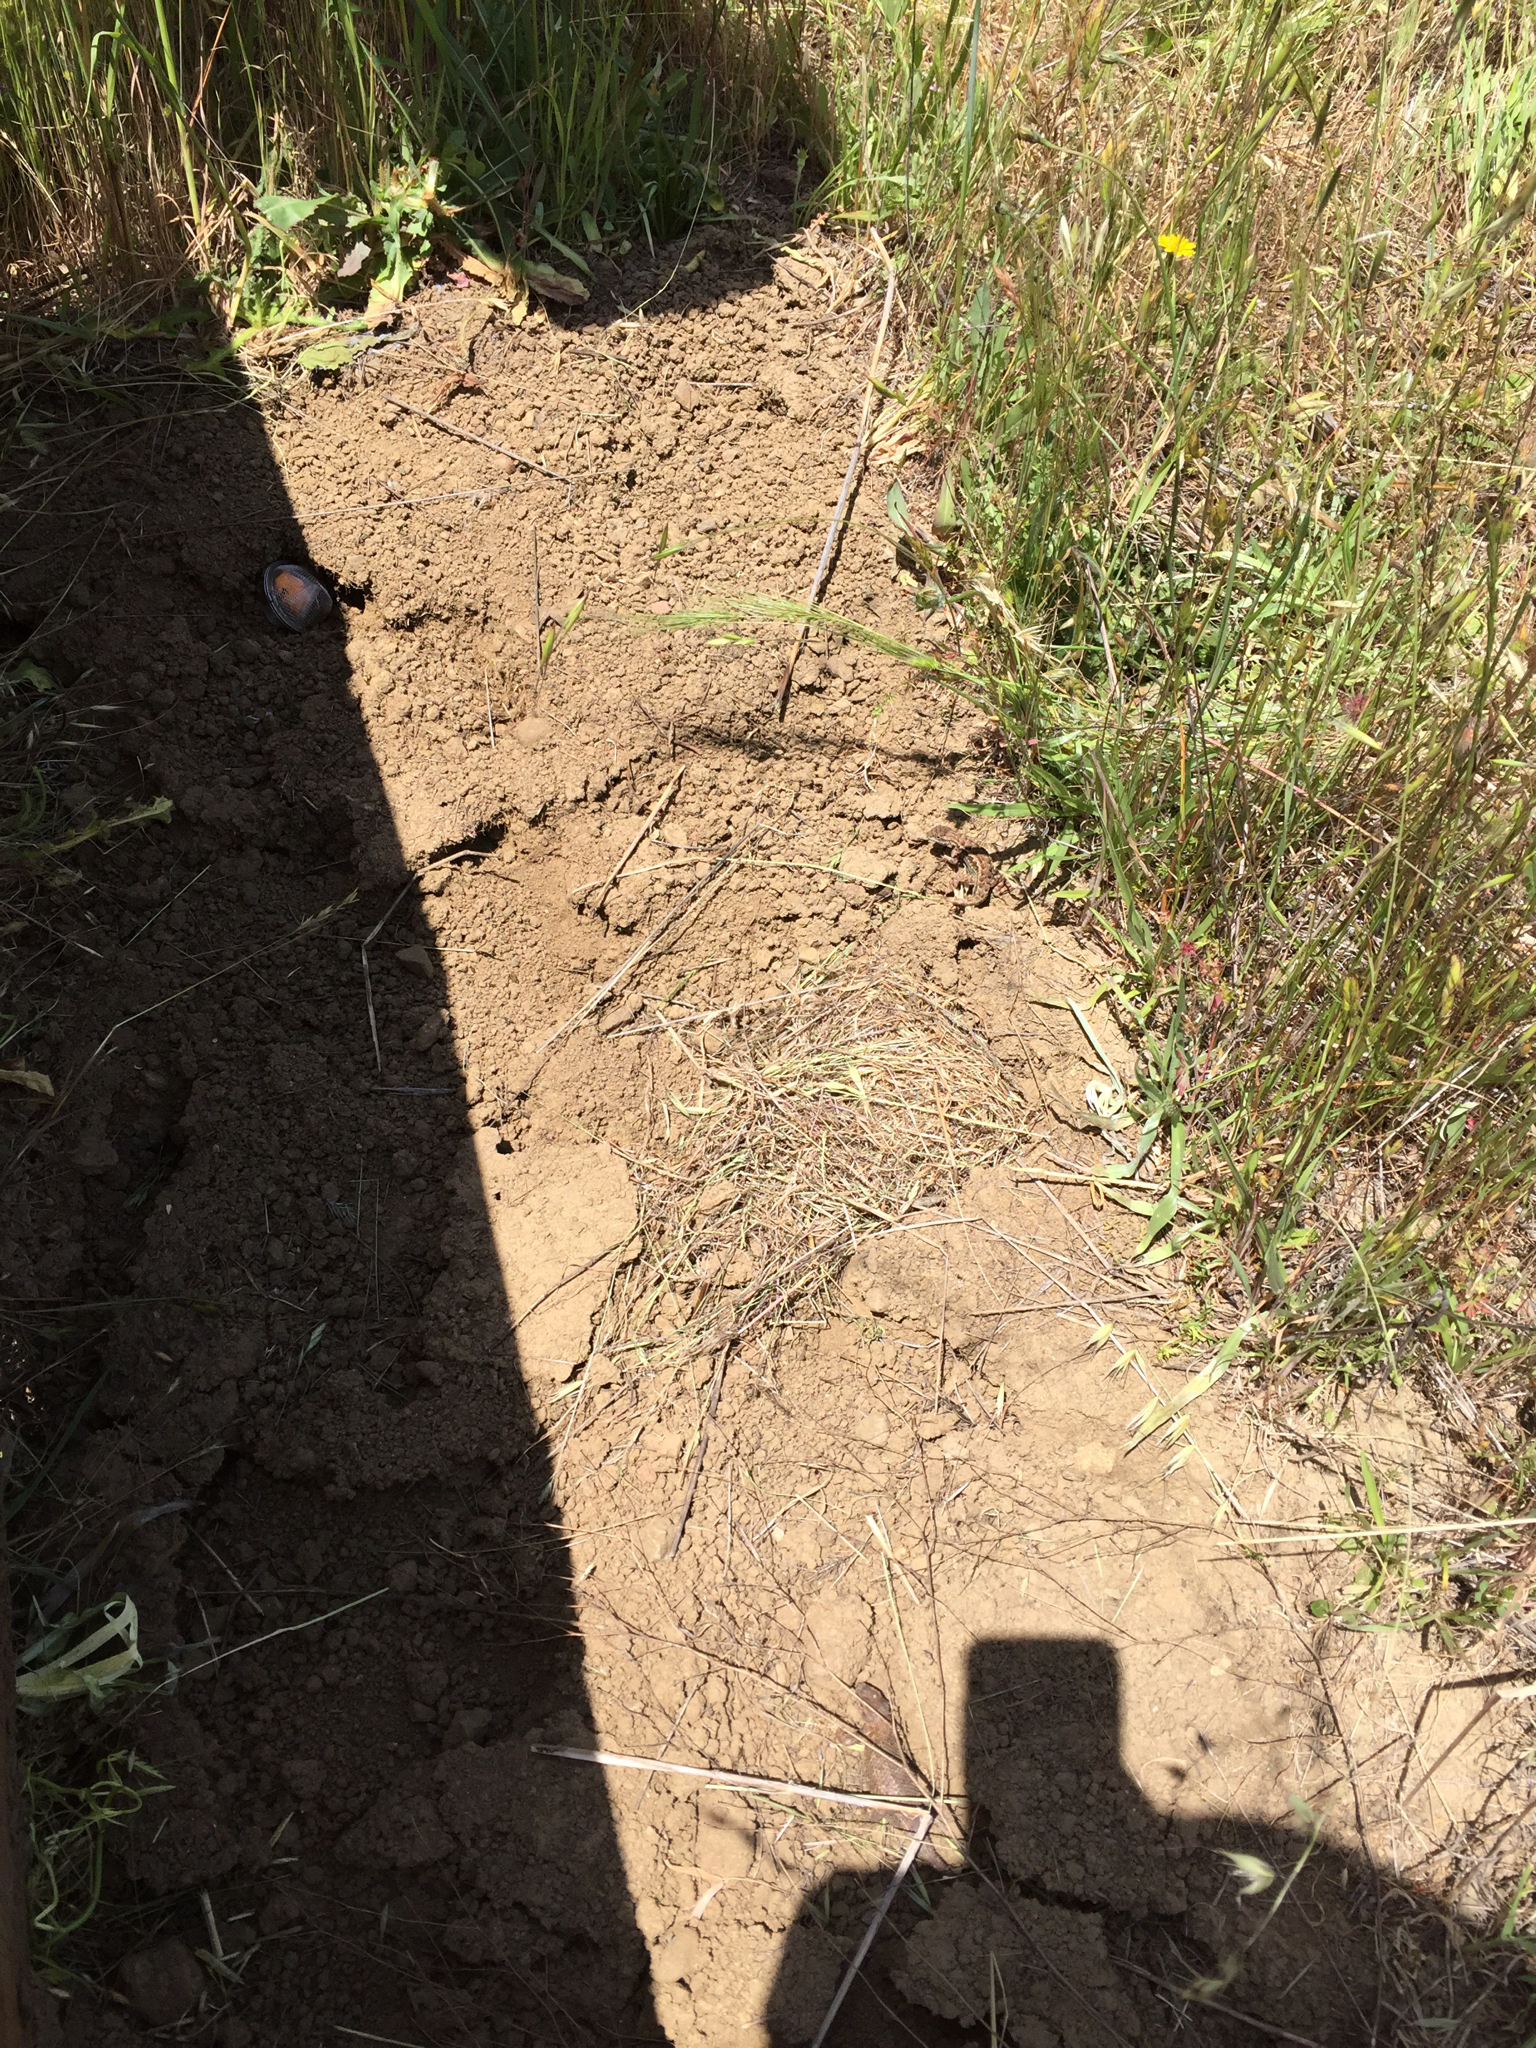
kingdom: Animalia
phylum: Chordata
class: Squamata
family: Phrynosomatidae
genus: Sceloporus
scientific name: Sceloporus occidentalis
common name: Western fence lizard
